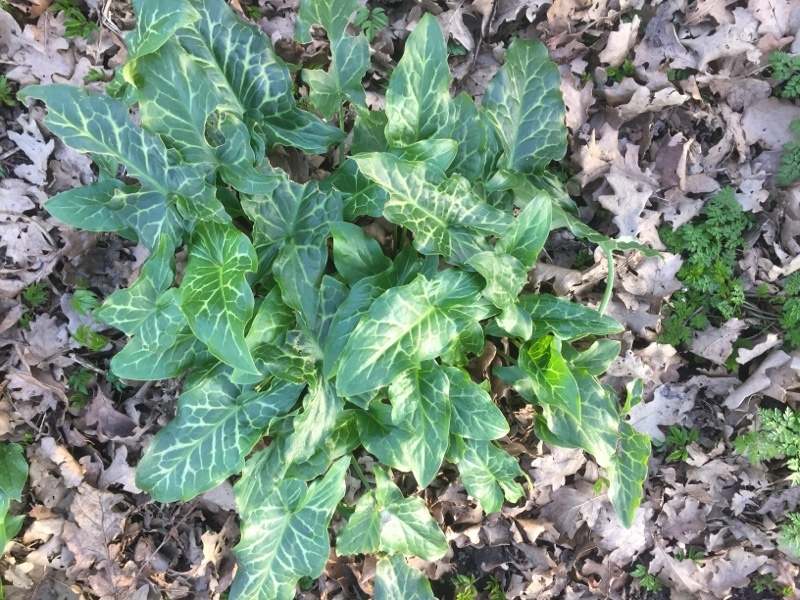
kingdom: Plantae
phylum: Tracheophyta
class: Liliopsida
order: Alismatales
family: Araceae
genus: Arum
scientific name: Arum italicum
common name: Italian lords-and-ladies
